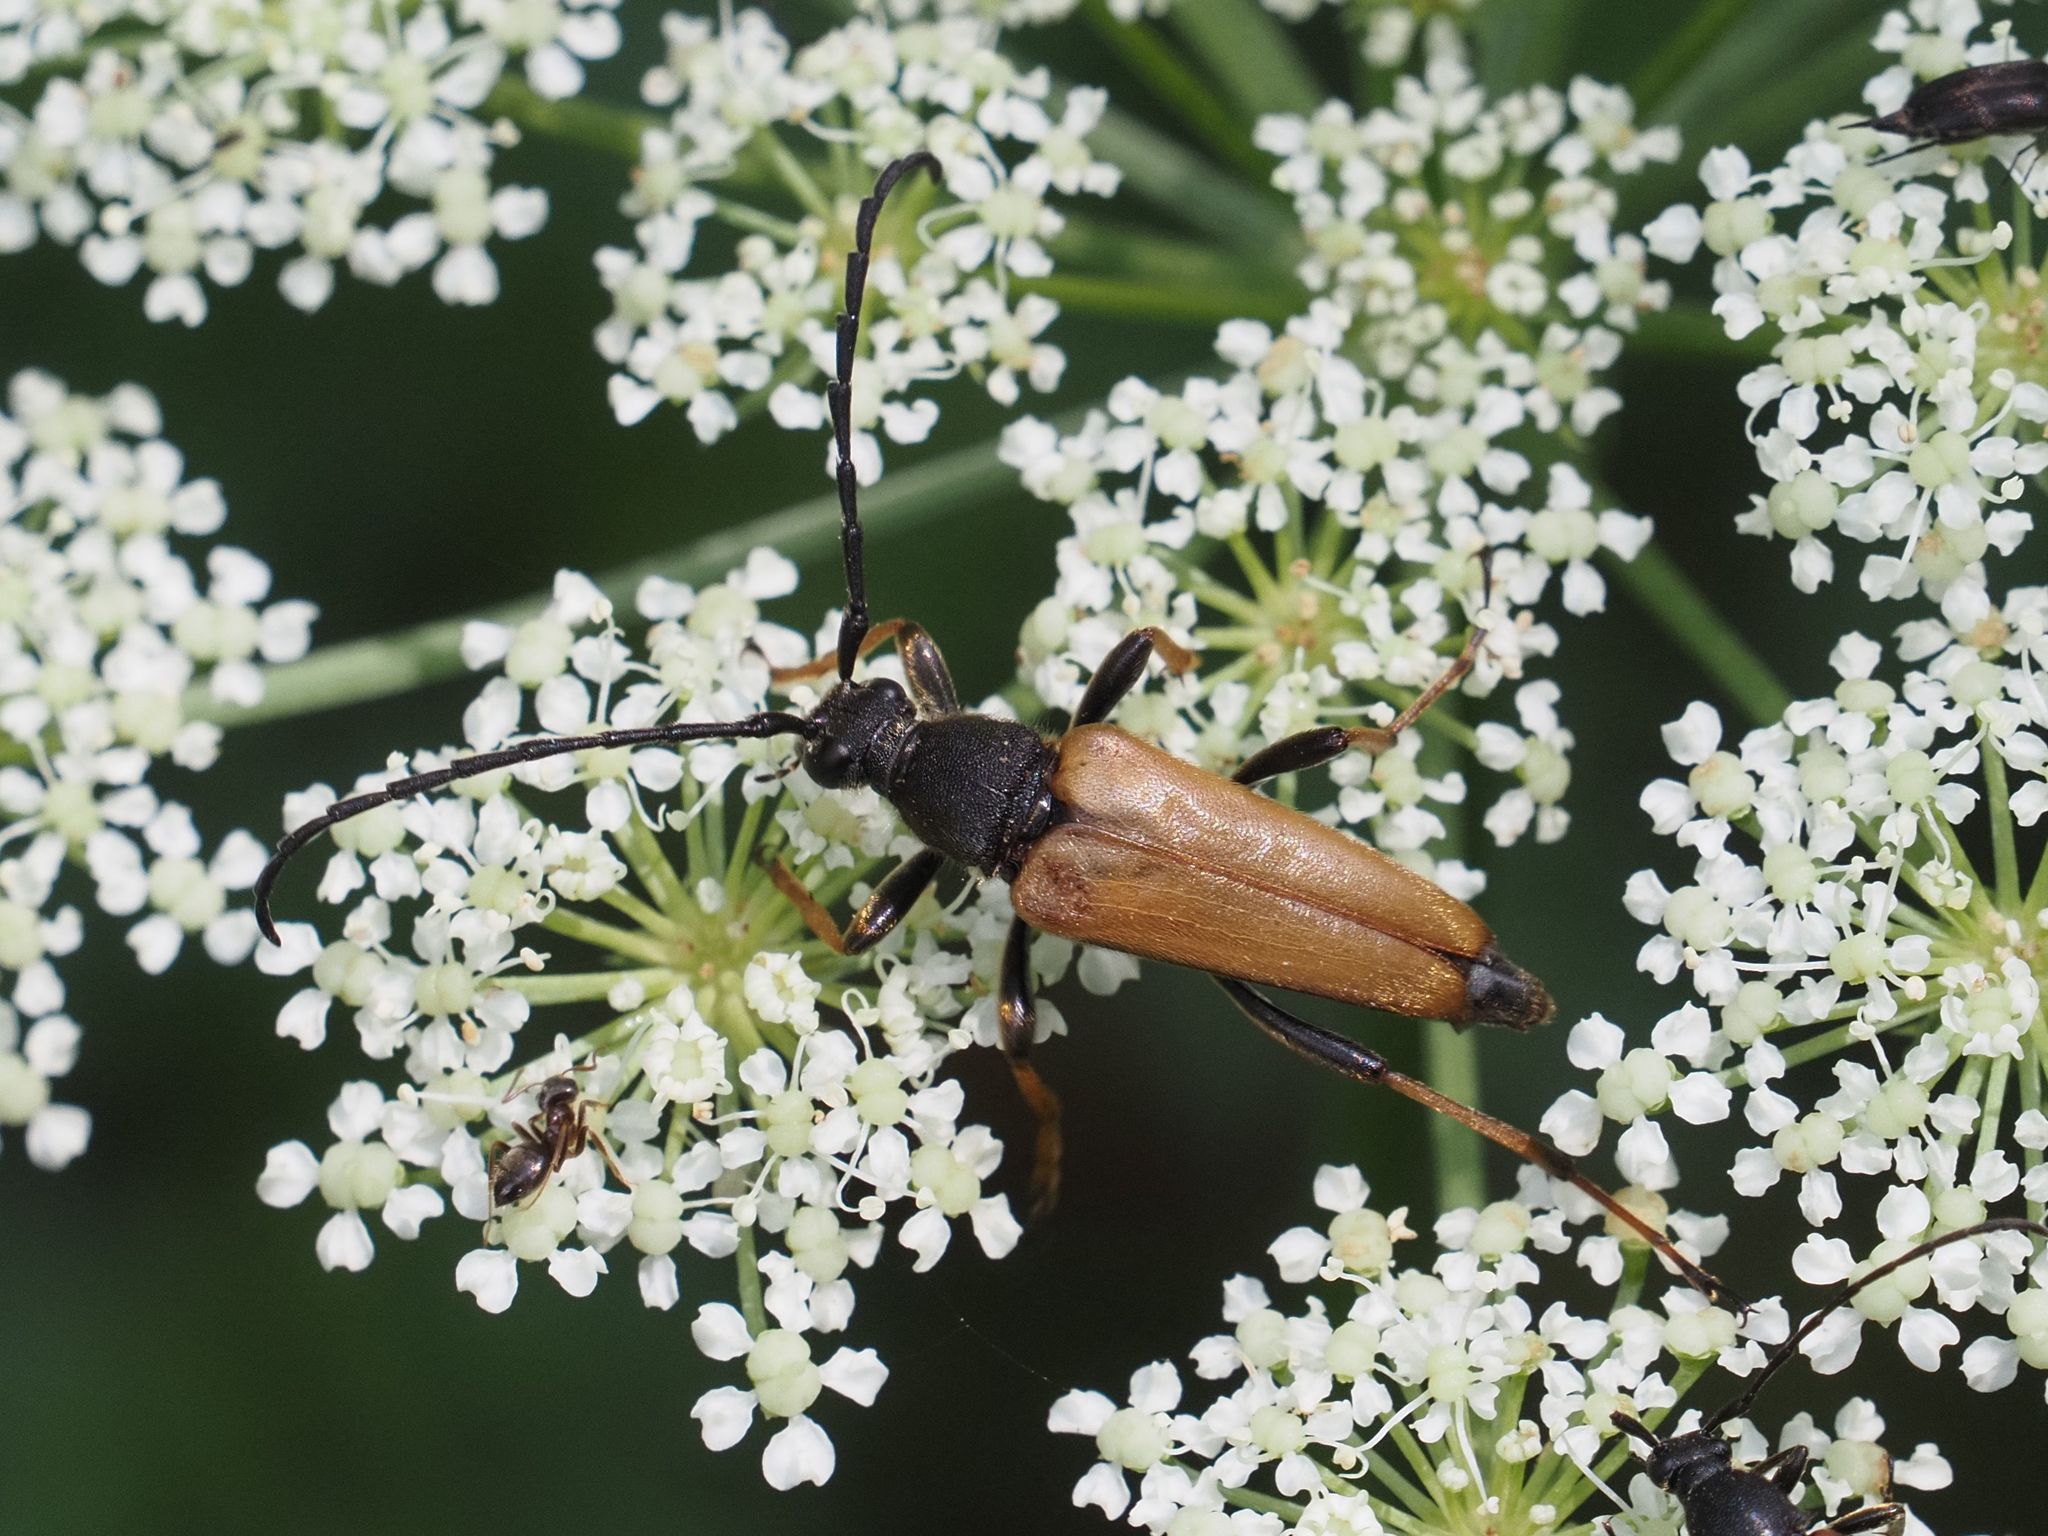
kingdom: Animalia
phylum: Arthropoda
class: Insecta
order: Coleoptera
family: Cerambycidae
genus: Stictoleptura
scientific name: Stictoleptura rubra
